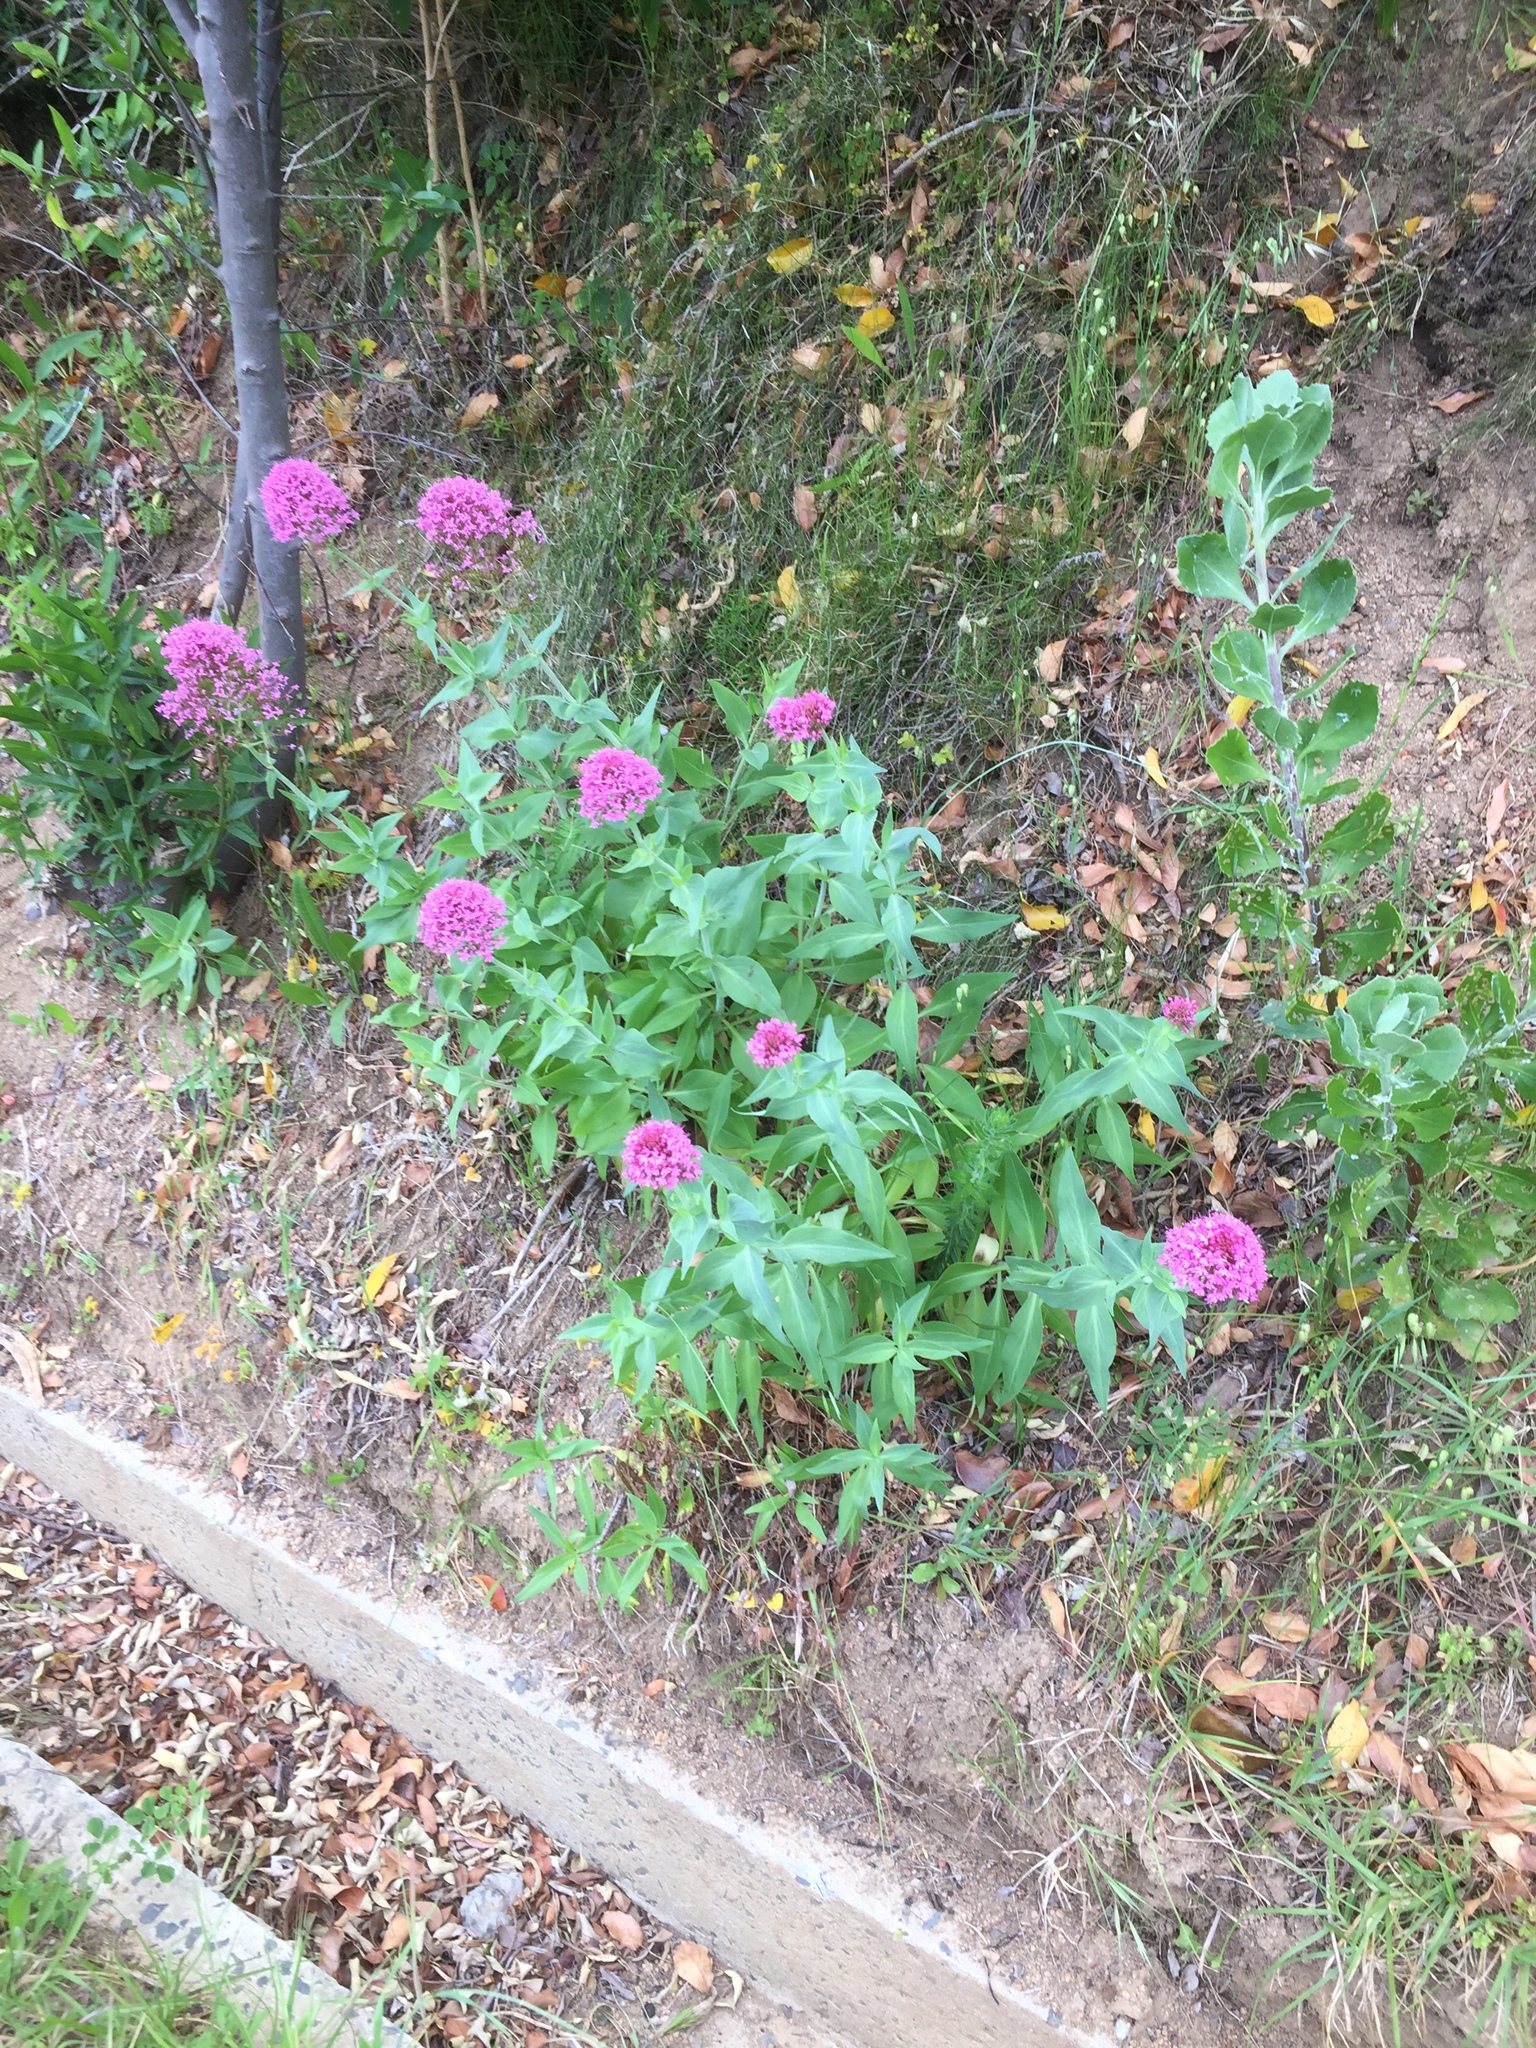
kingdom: Plantae
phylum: Tracheophyta
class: Magnoliopsida
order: Dipsacales
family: Caprifoliaceae
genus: Centranthus
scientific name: Centranthus ruber
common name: Red valerian
